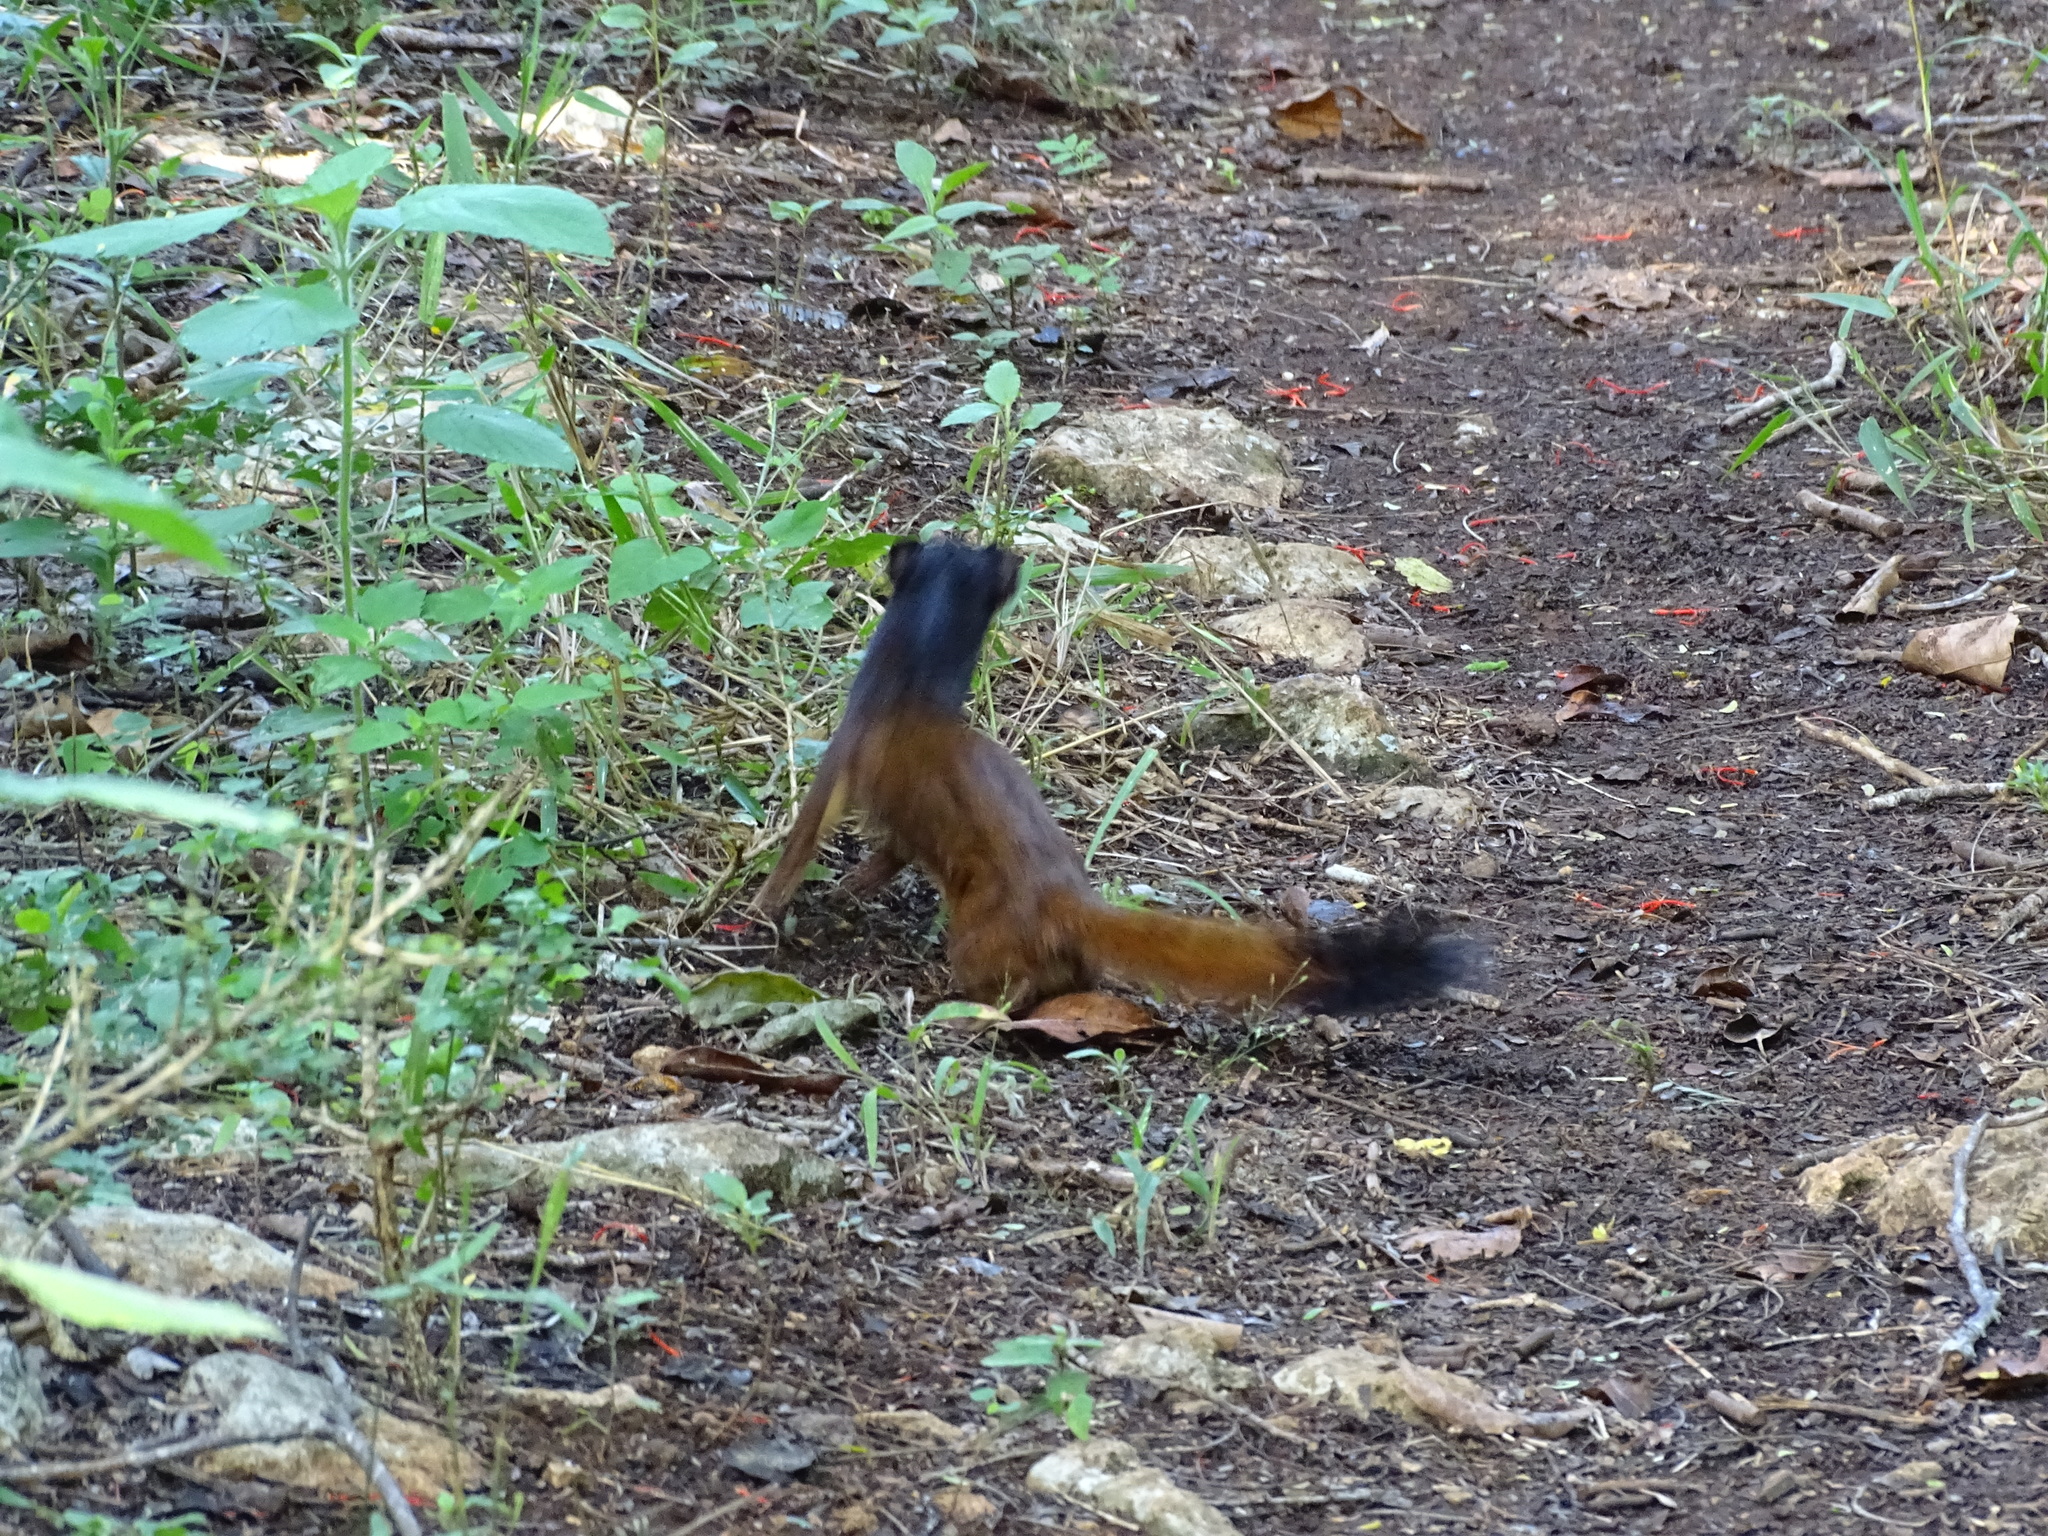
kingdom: Animalia
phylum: Chordata
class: Mammalia
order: Carnivora
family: Mustelidae
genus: Mustela
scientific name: Mustela
